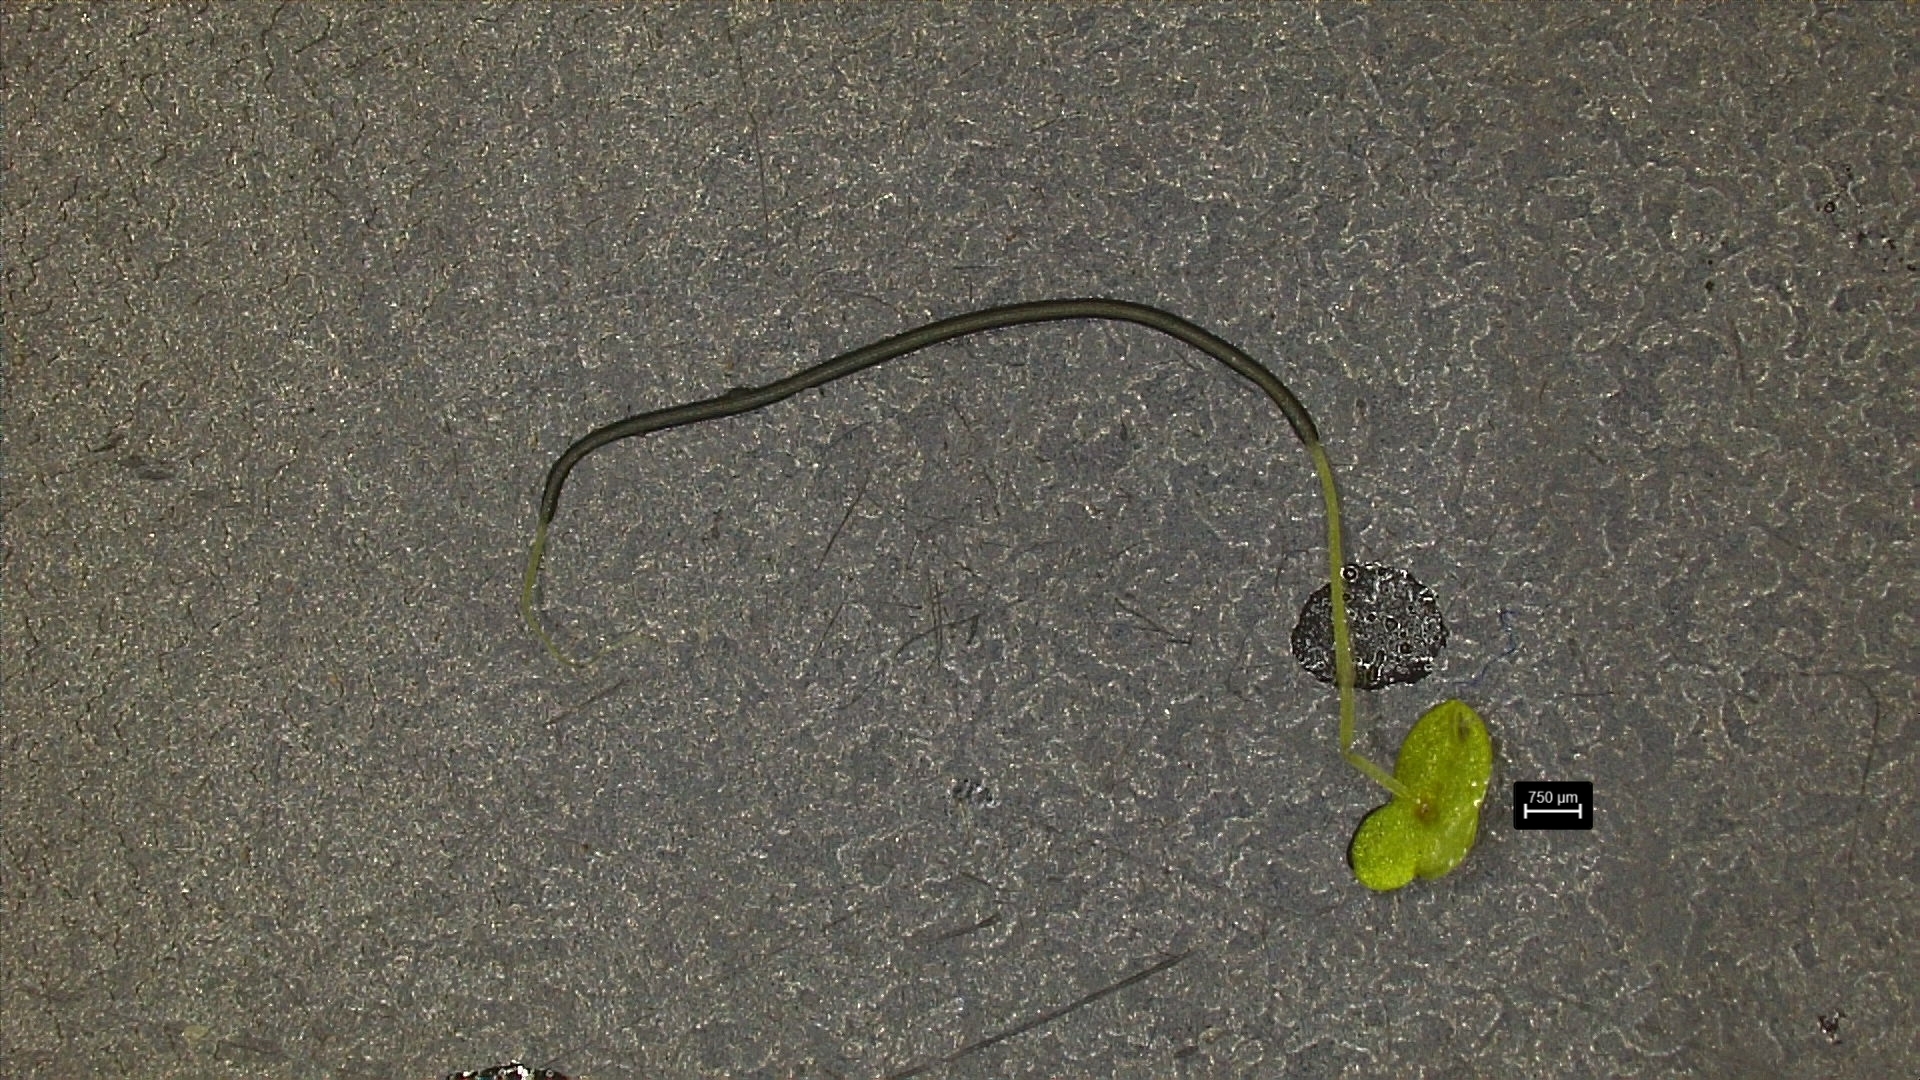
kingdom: Plantae
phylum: Tracheophyta
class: Liliopsida
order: Alismatales
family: Araceae
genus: Lemna
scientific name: Lemna minuta
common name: Least duckweed
